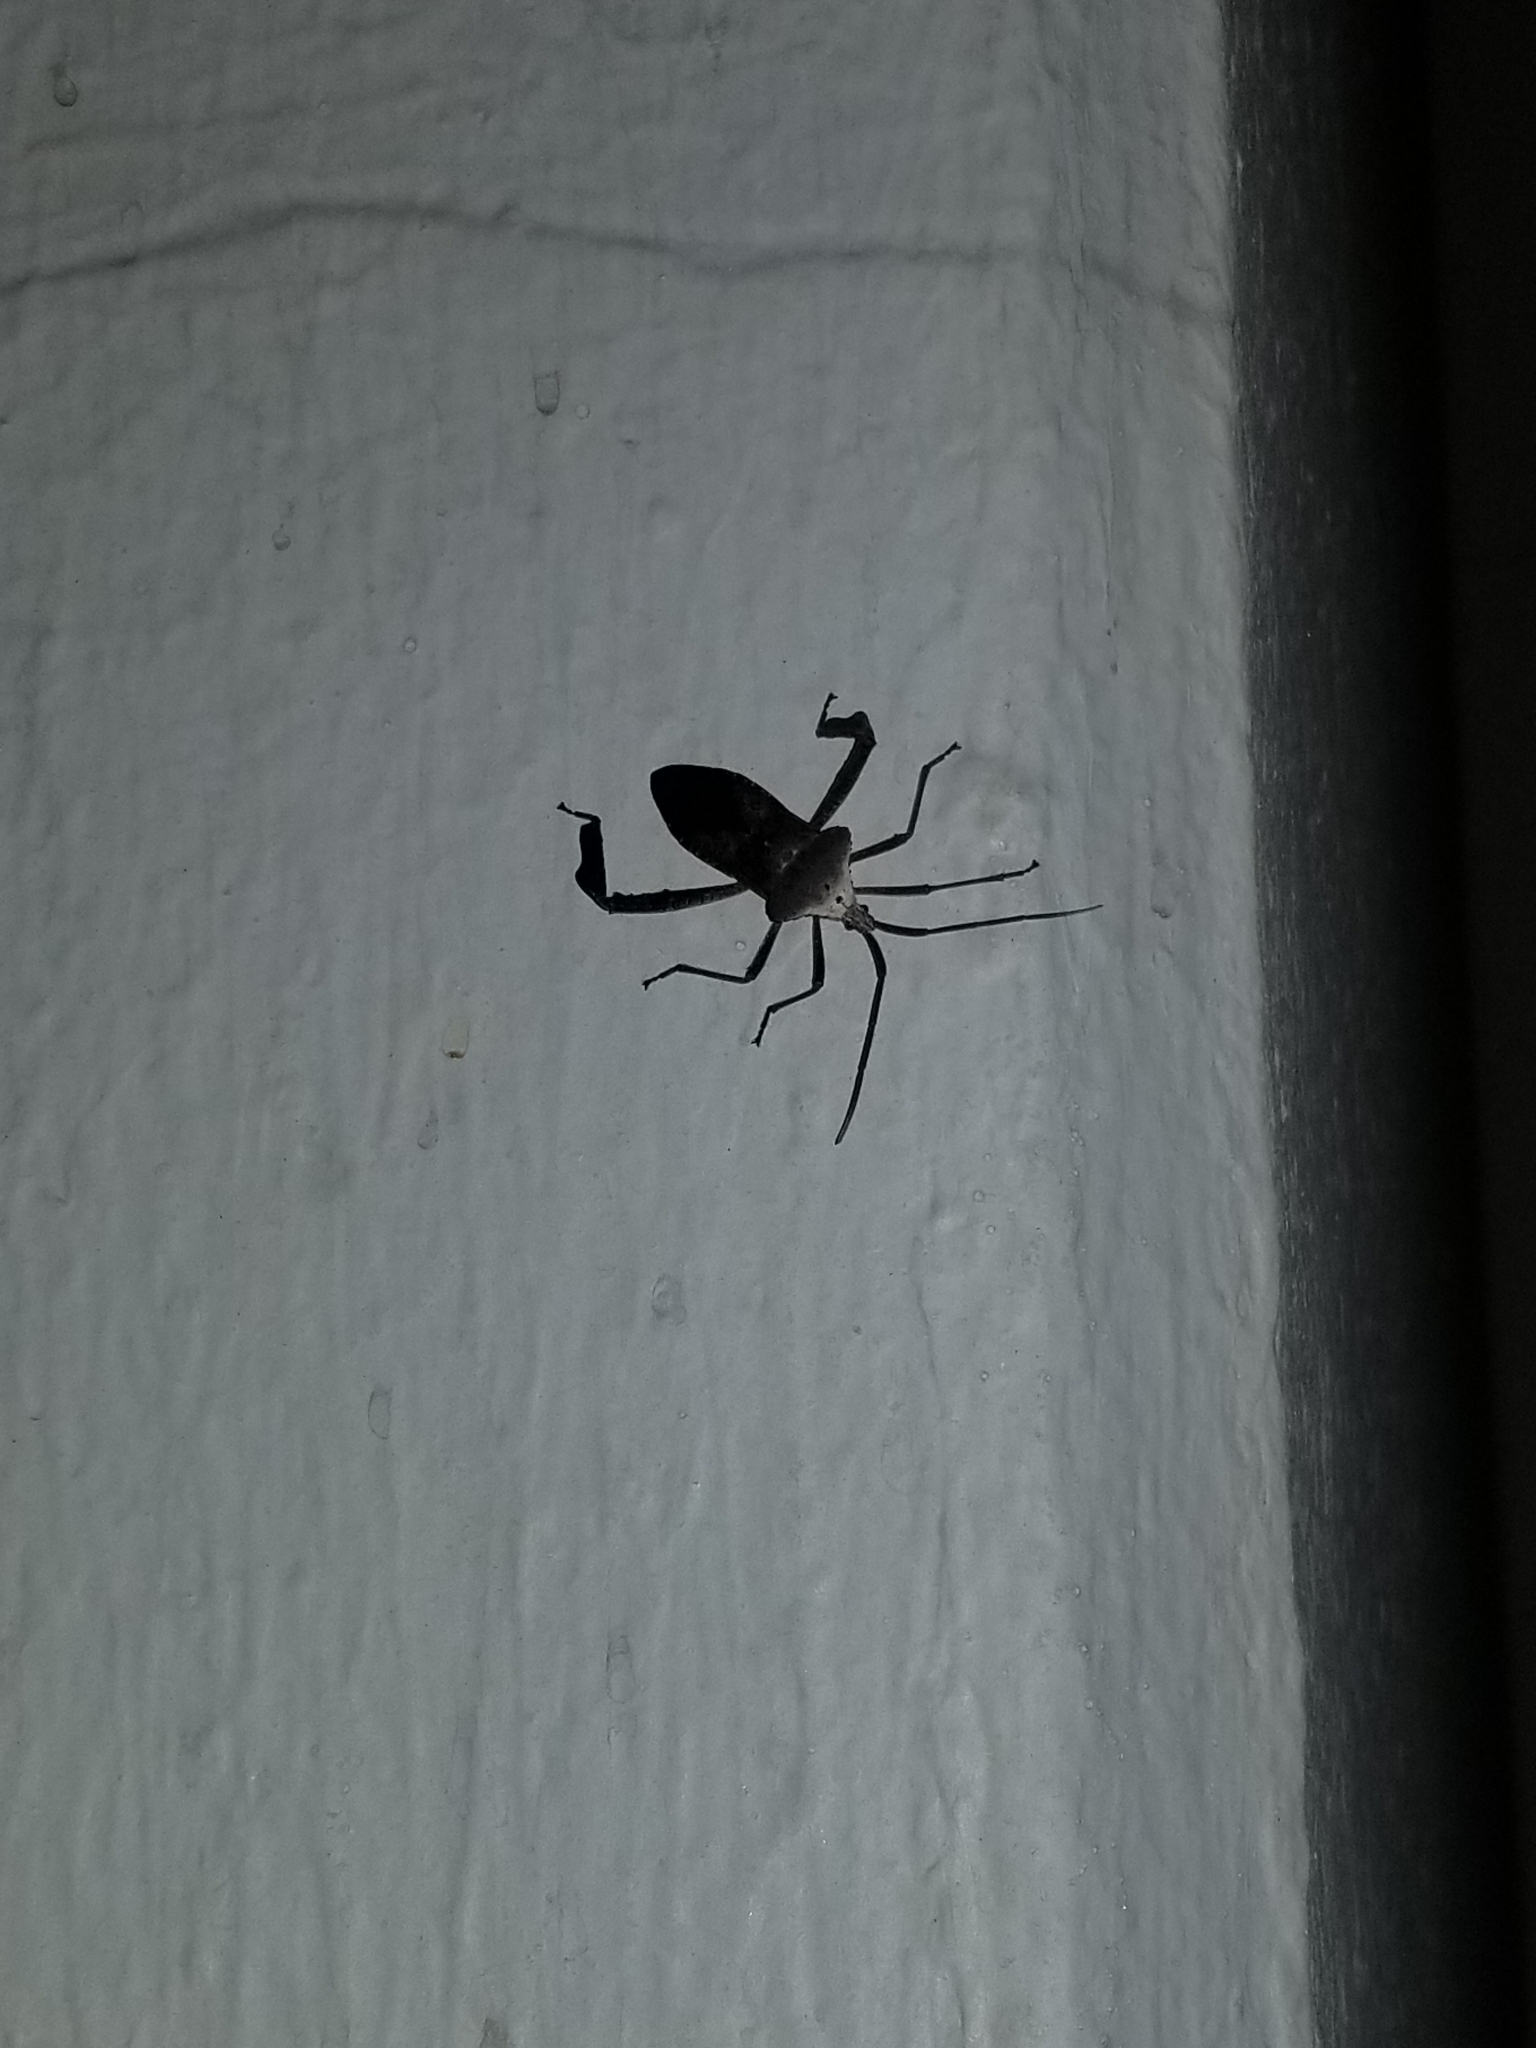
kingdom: Animalia
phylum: Arthropoda
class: Insecta
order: Hemiptera
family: Coreidae
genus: Acanthocephala
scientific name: Acanthocephala declivis
